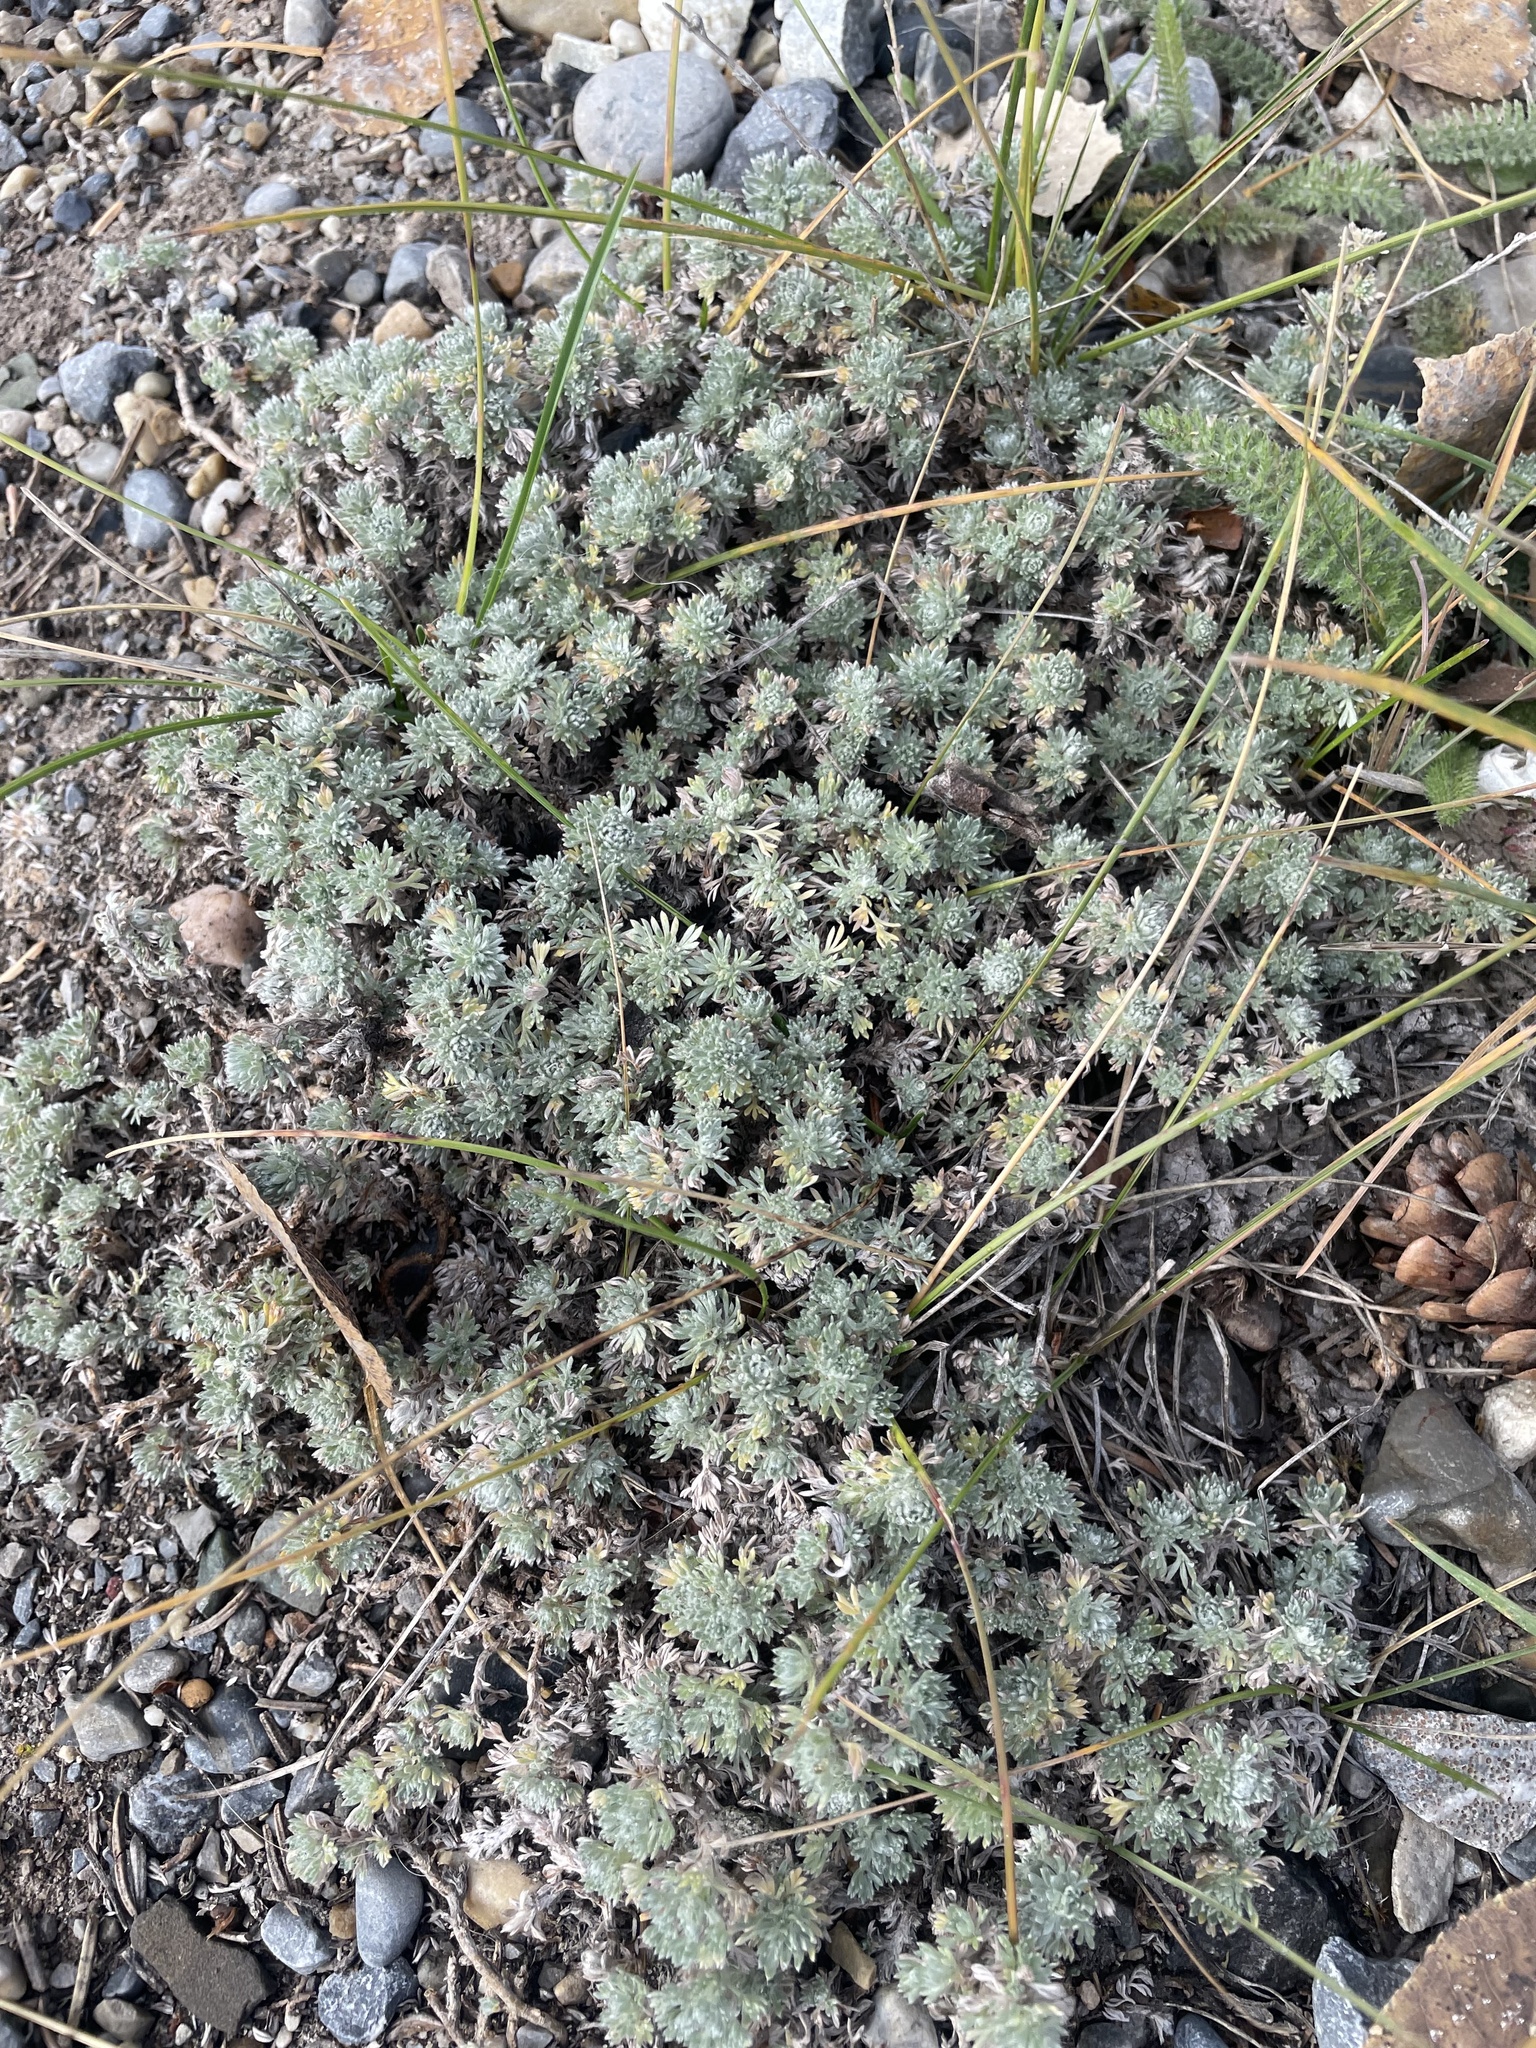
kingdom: Plantae
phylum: Tracheophyta
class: Magnoliopsida
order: Asterales
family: Asteraceae
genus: Artemisia
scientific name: Artemisia frigida
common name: Prairie sagewort
